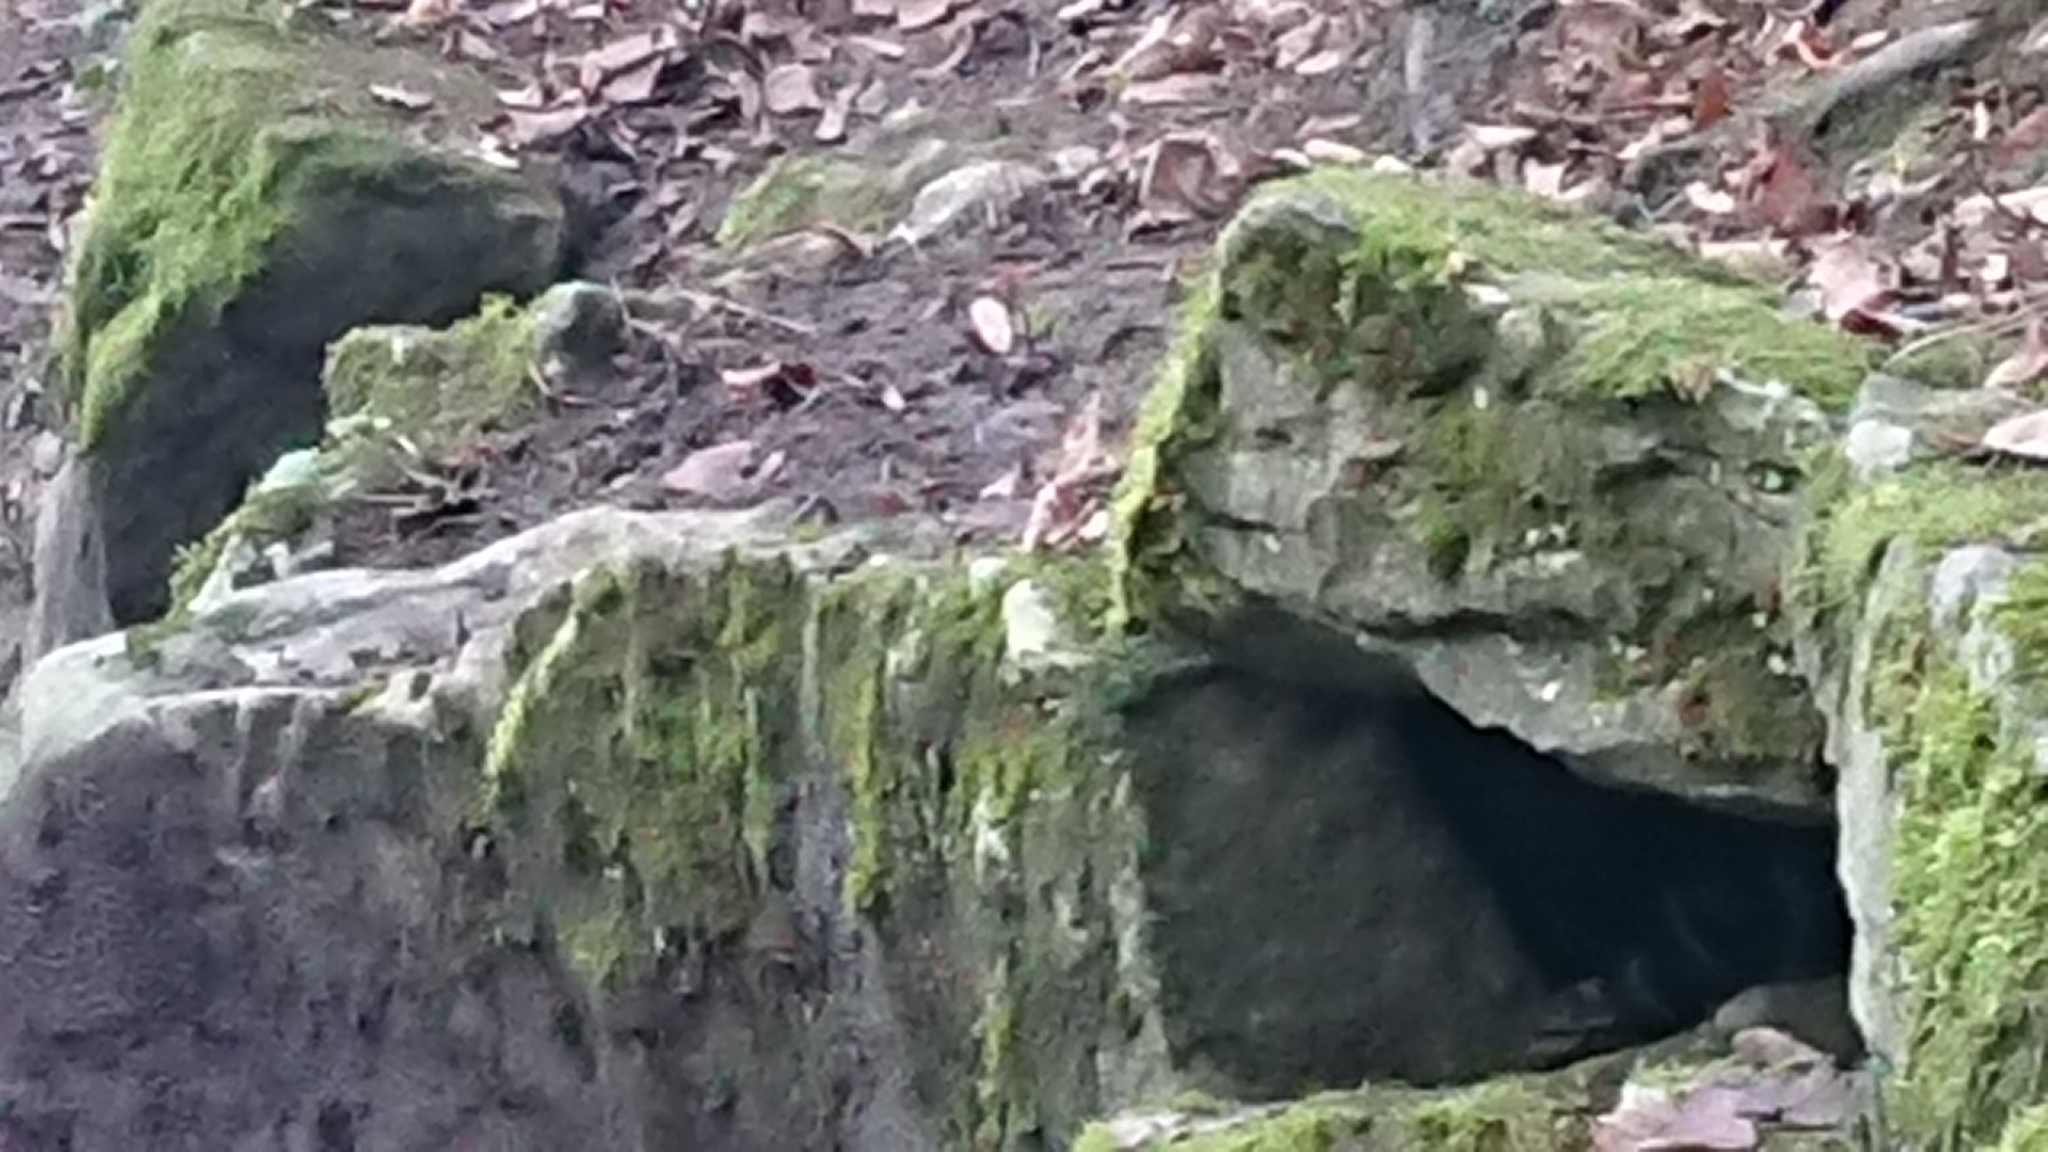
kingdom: Animalia
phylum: Chordata
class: Mammalia
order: Rodentia
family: Muridae
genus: Rattus
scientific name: Rattus norvegicus
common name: Brown rat
